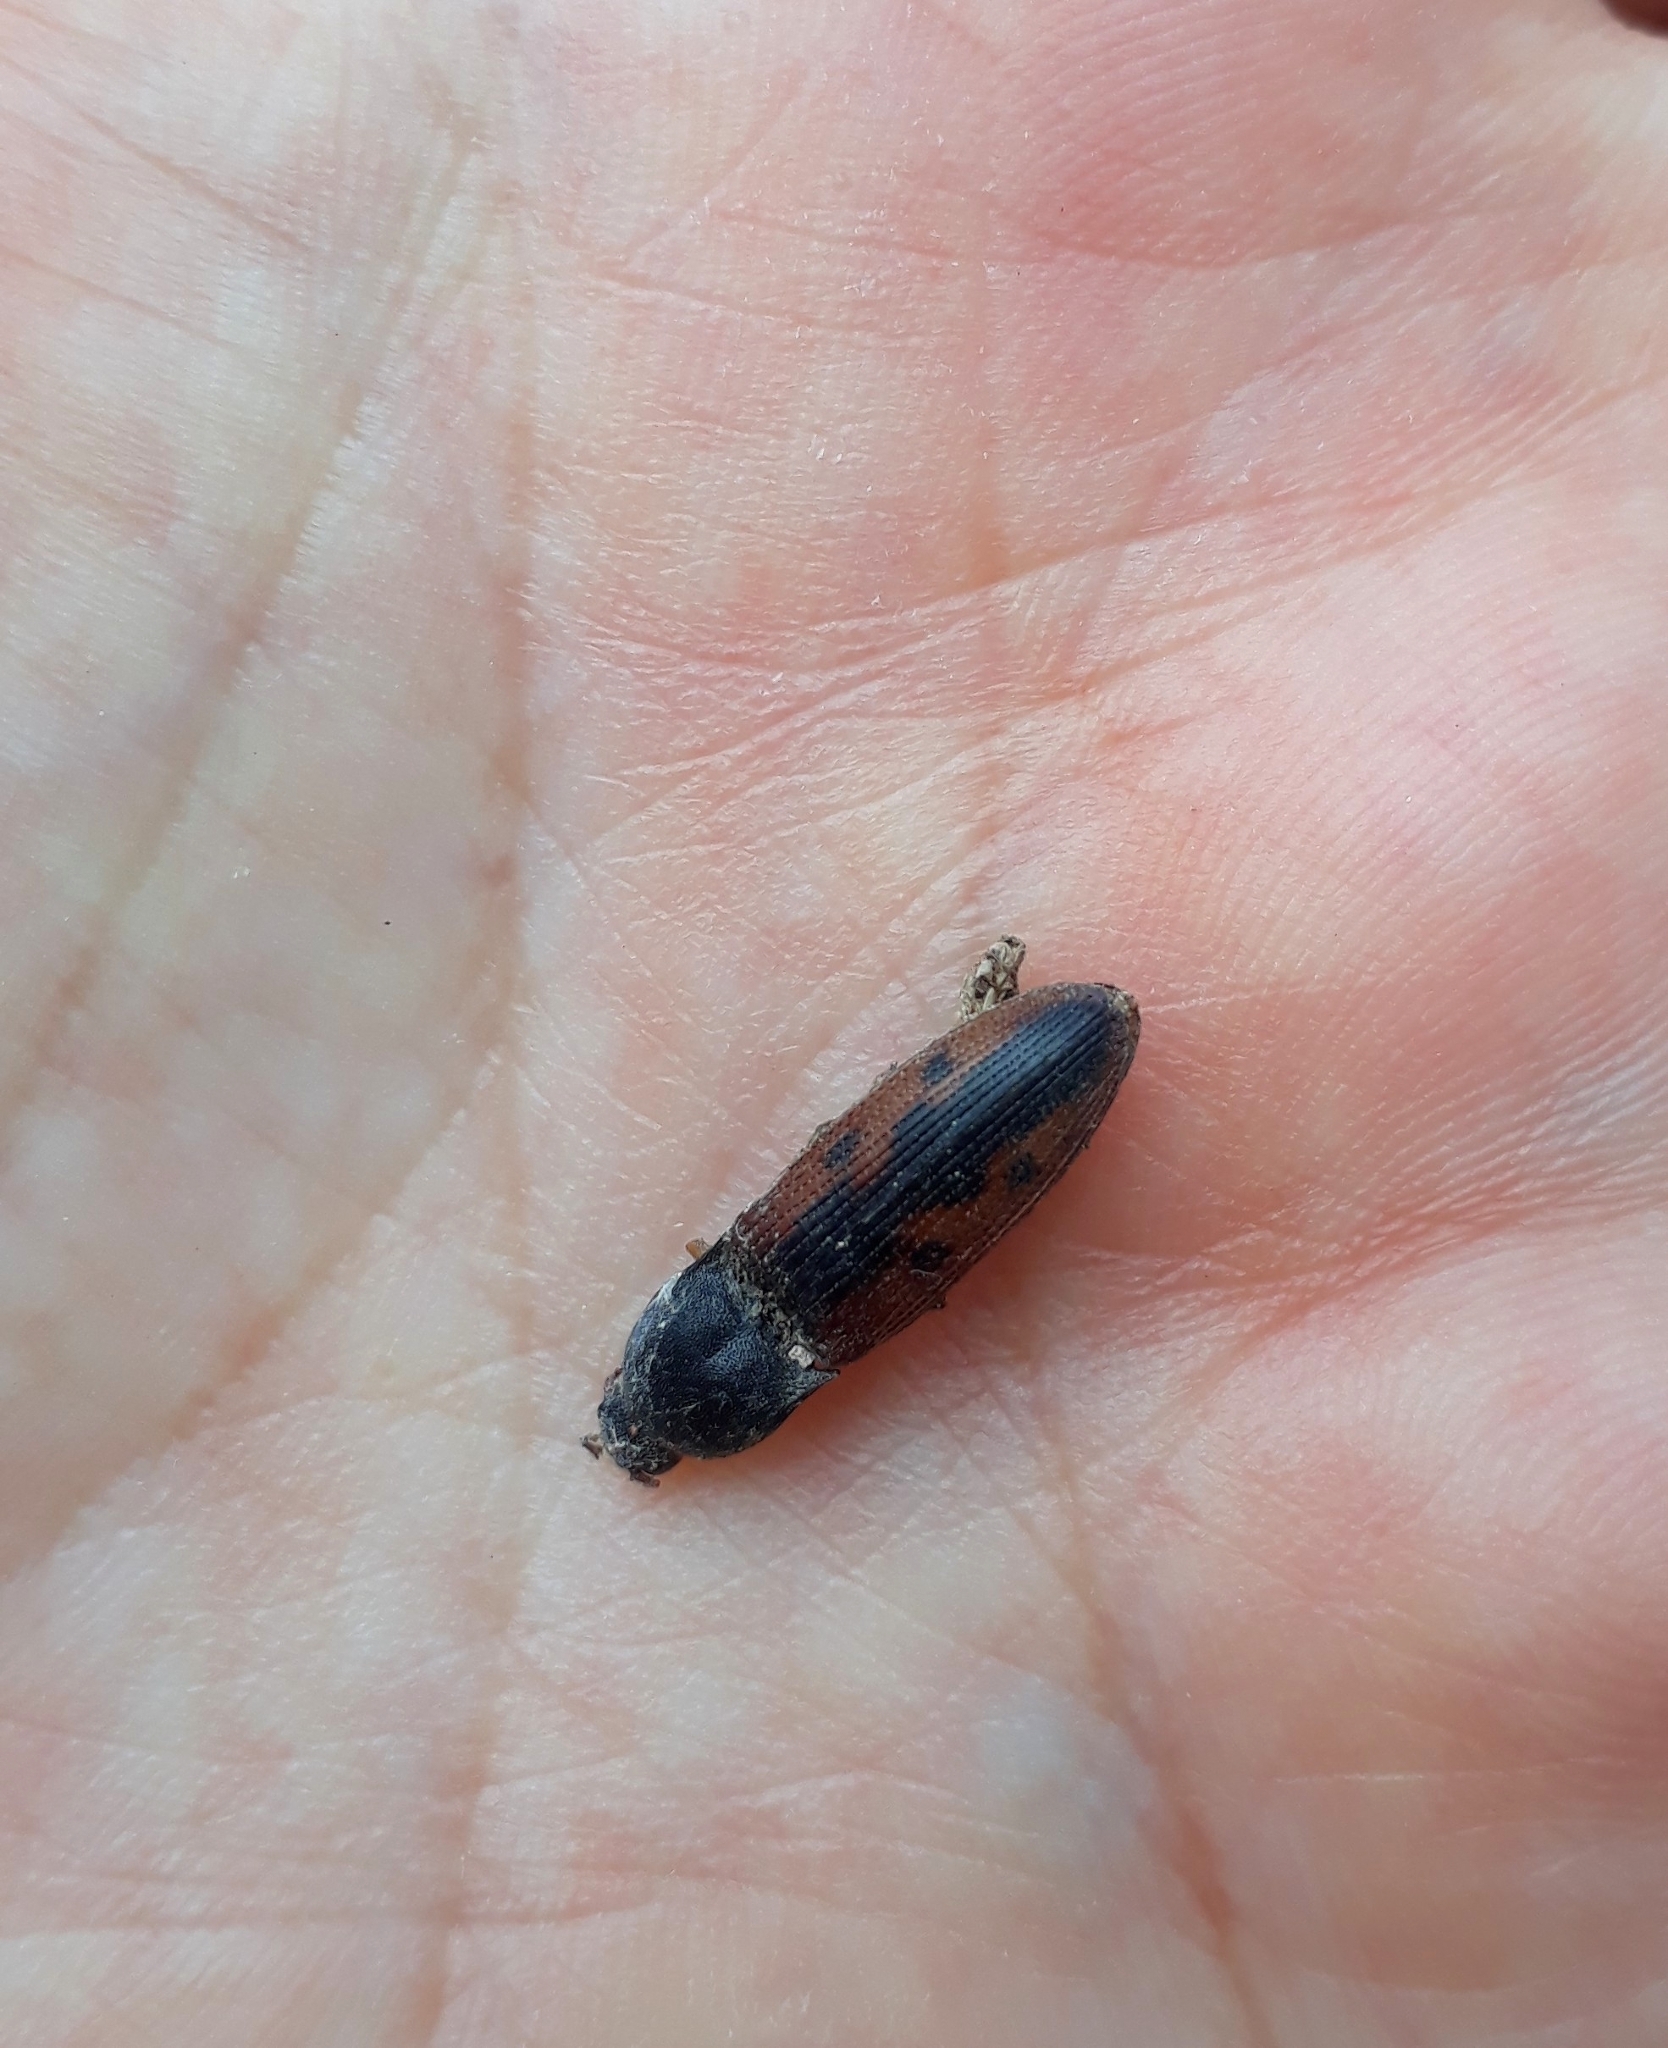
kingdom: Animalia
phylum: Arthropoda
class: Insecta
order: Coleoptera
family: Elateridae
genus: Monocrepidius
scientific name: Monocrepidius
